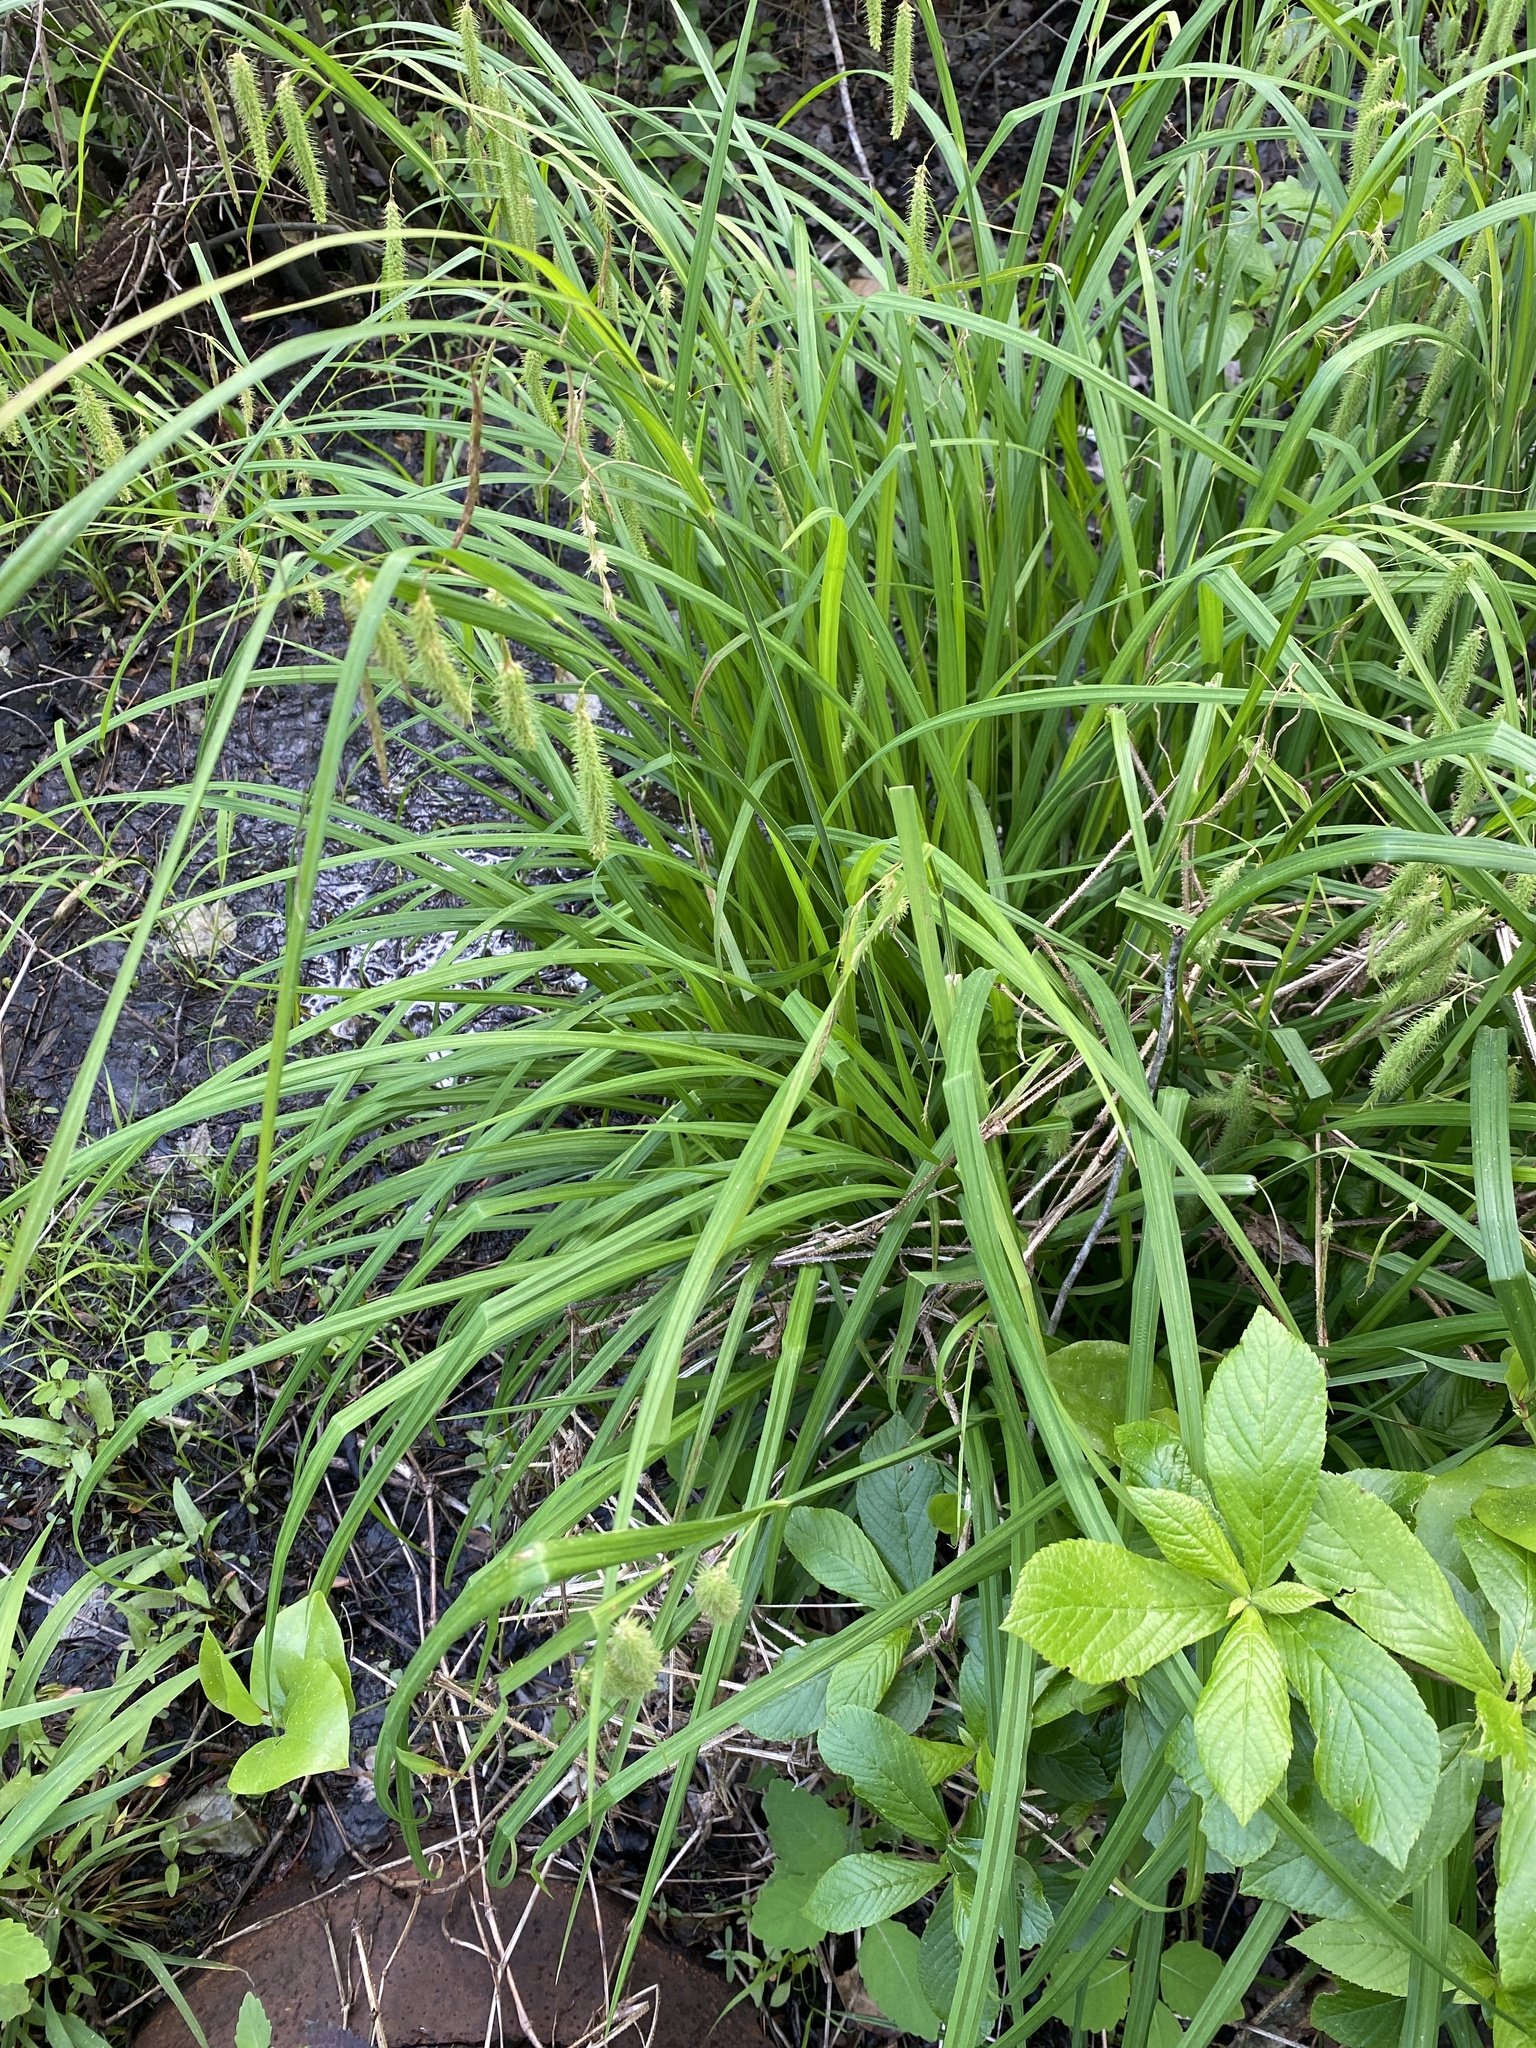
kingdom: Plantae
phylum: Tracheophyta
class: Liliopsida
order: Poales
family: Cyperaceae
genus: Carex
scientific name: Carex crinita
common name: Fringed sedge
